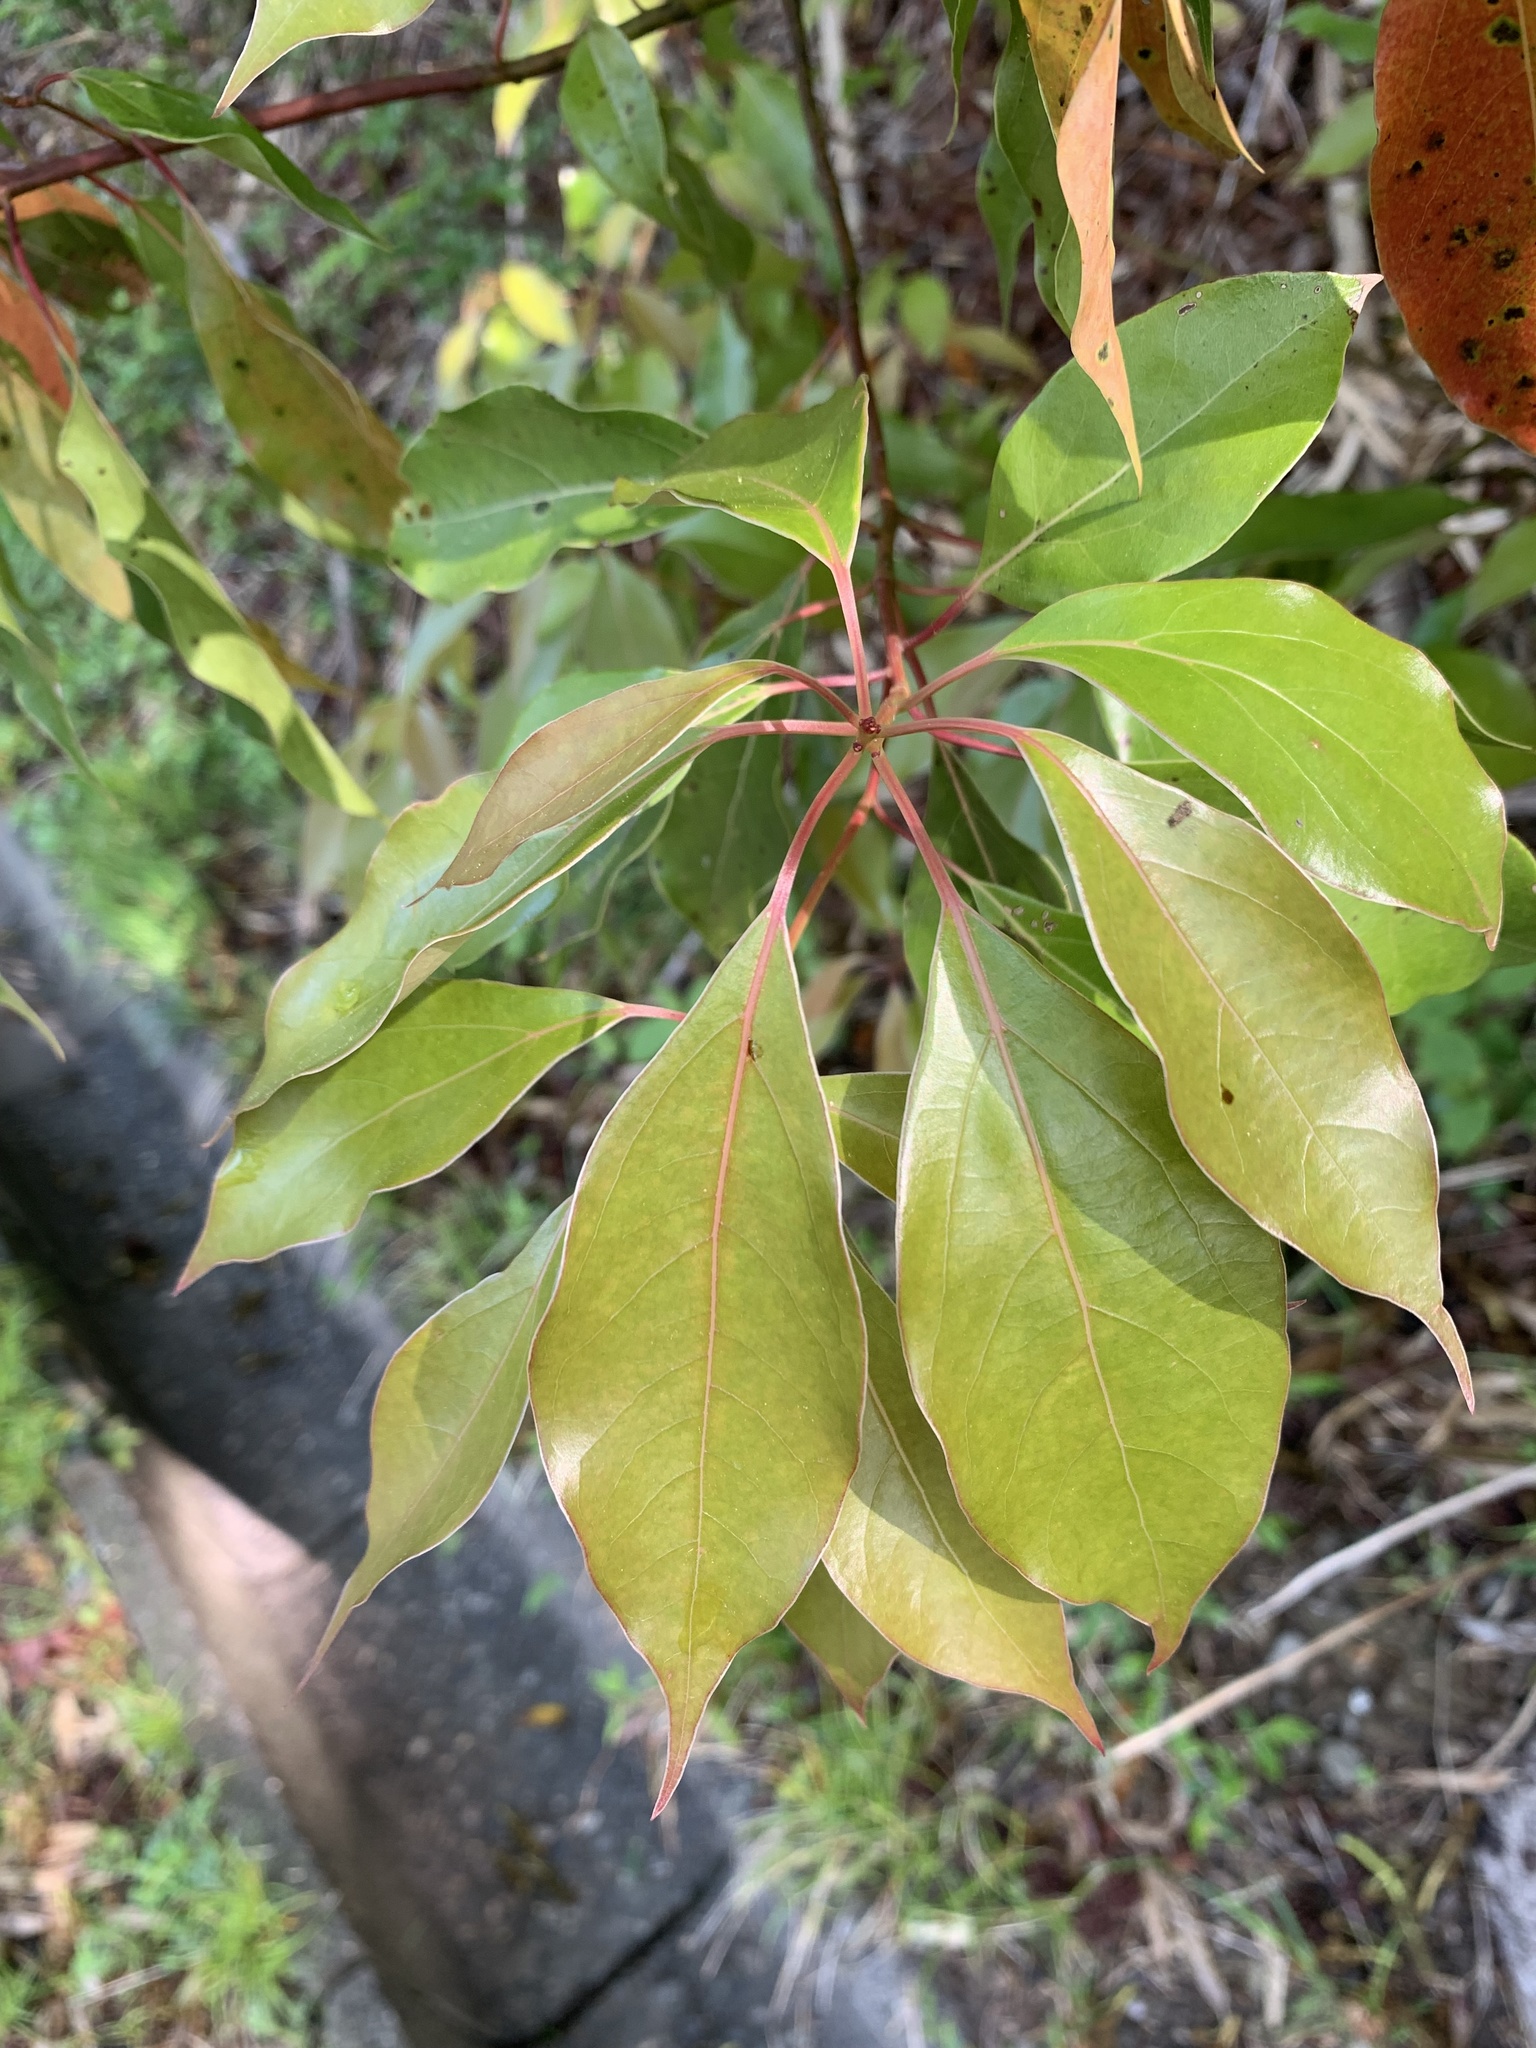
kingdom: Plantae
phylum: Tracheophyta
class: Magnoliopsida
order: Laurales
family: Lauraceae
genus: Cinnamomum
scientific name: Cinnamomum camphora
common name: Camphortree
